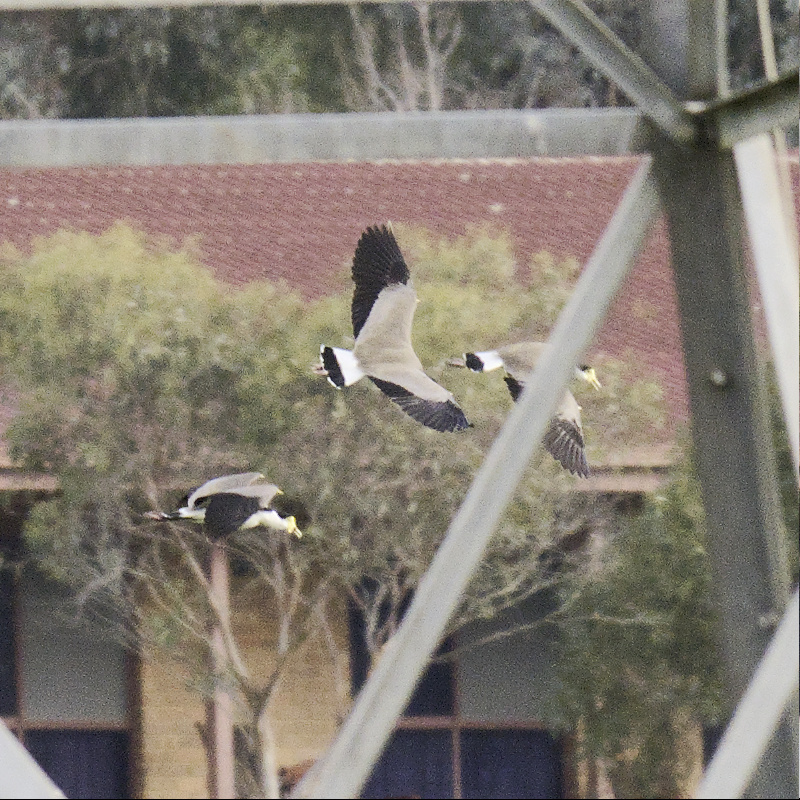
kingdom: Animalia
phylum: Chordata
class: Aves
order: Charadriiformes
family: Charadriidae
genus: Vanellus
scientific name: Vanellus miles
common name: Masked lapwing
